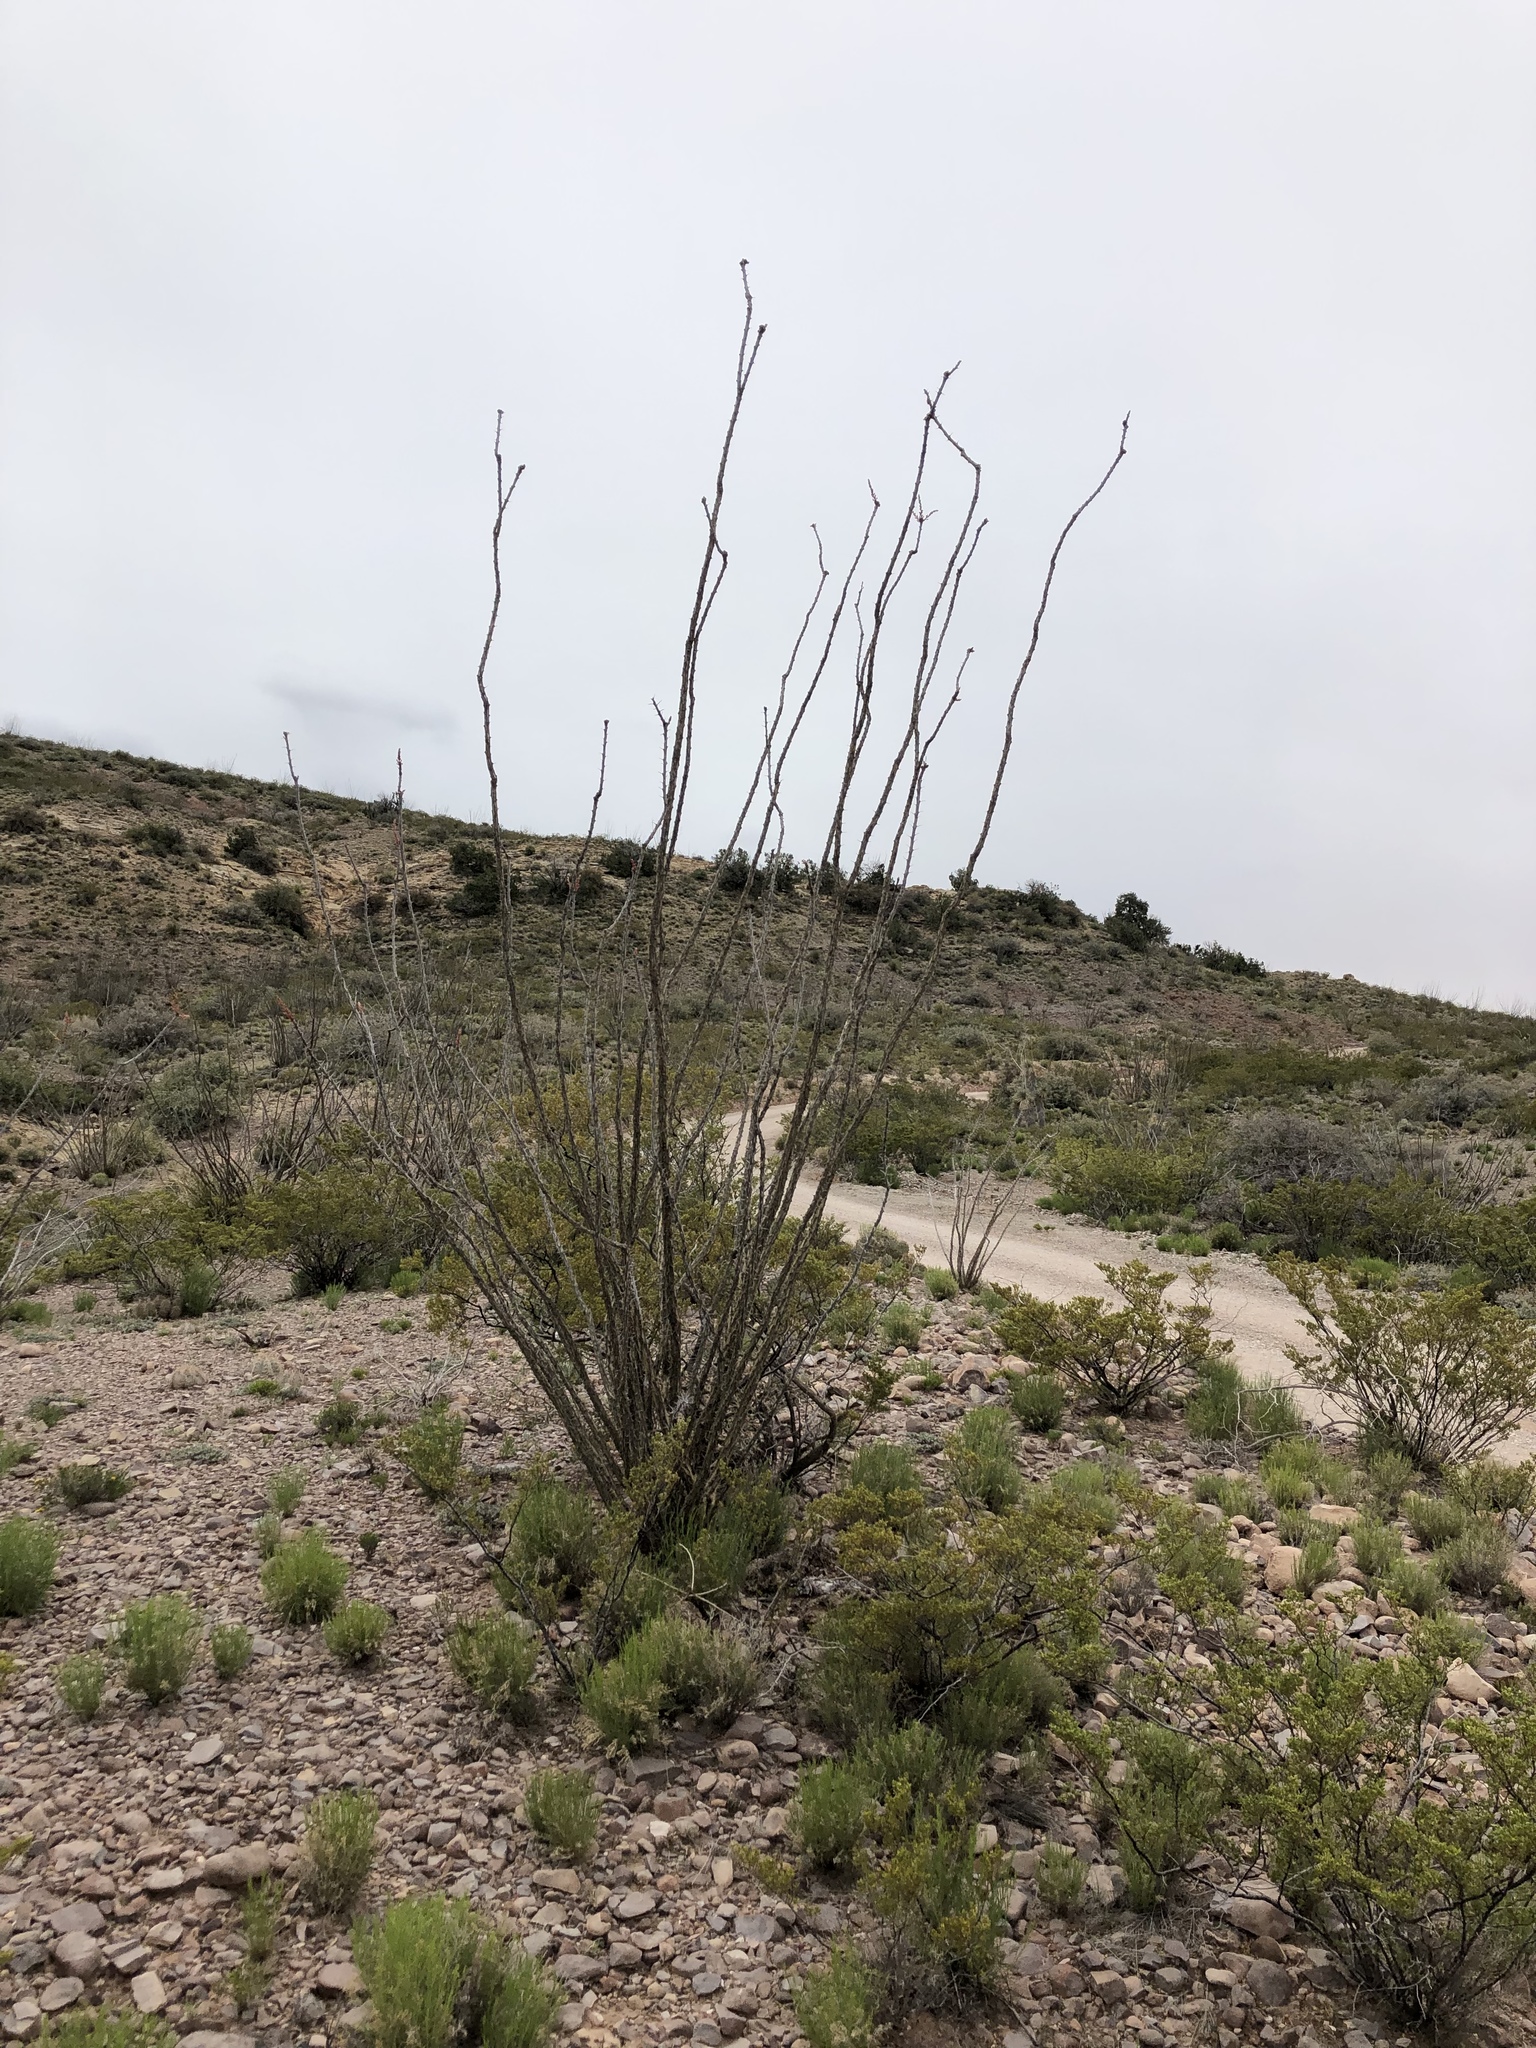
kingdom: Plantae
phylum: Tracheophyta
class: Magnoliopsida
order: Ericales
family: Fouquieriaceae
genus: Fouquieria
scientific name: Fouquieria splendens
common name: Vine-cactus
